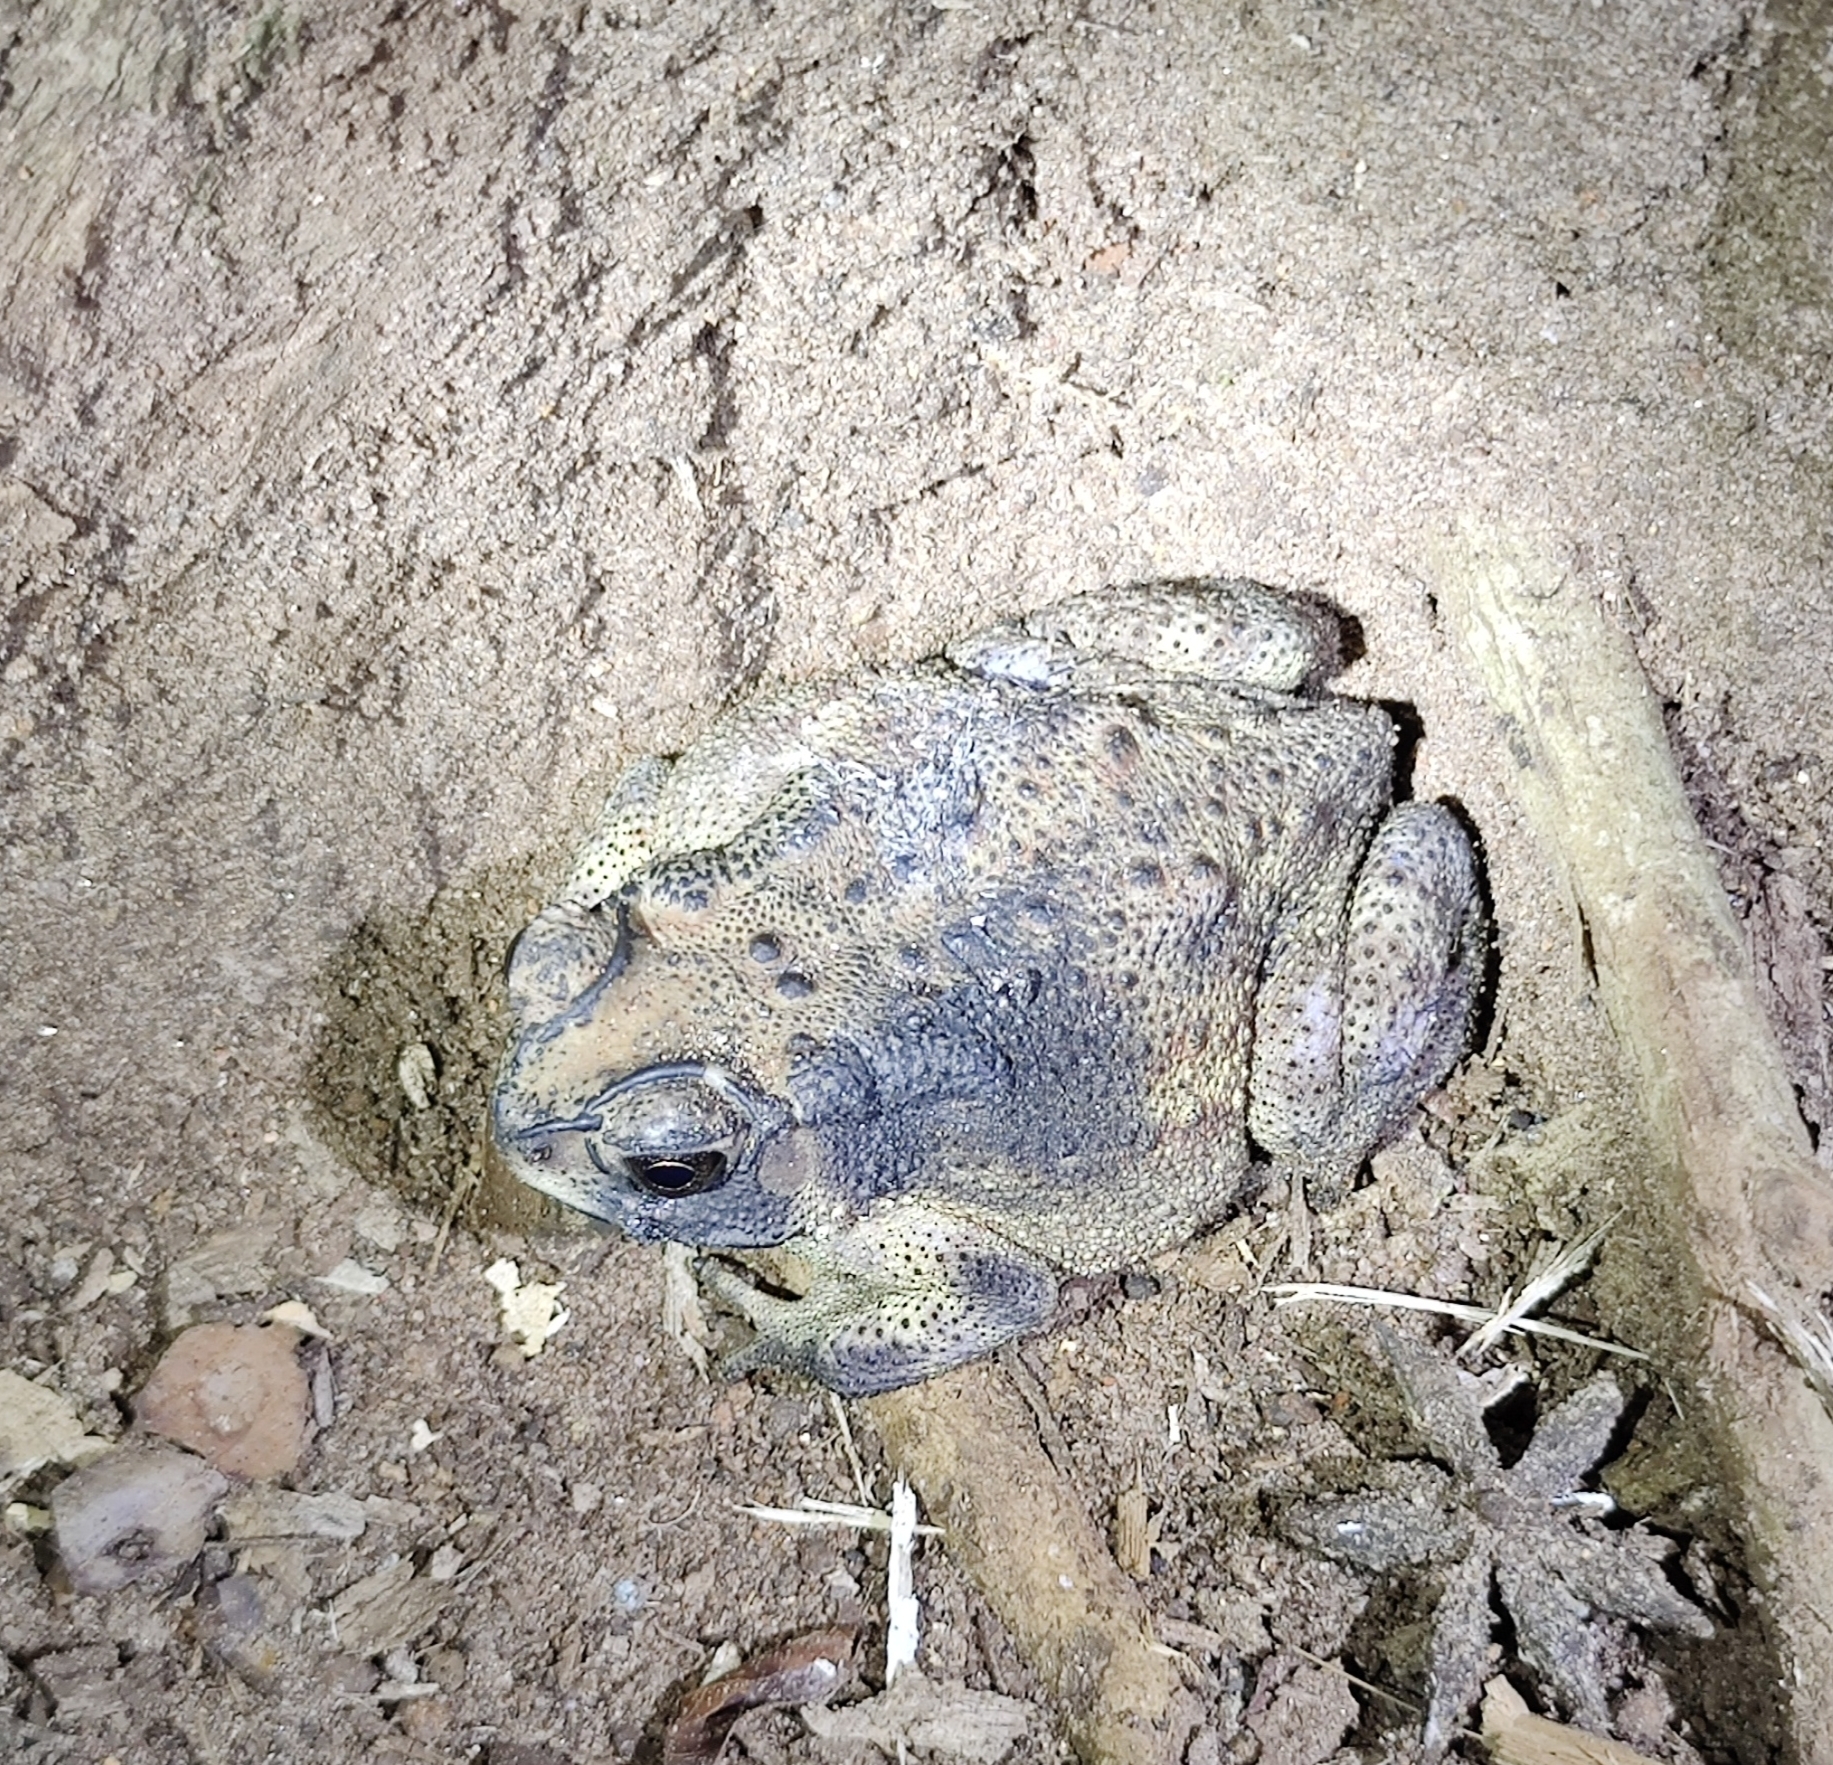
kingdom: Animalia
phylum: Chordata
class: Amphibia
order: Anura
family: Bufonidae
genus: Duttaphrynus
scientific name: Duttaphrynus melanostictus
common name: Common sunda toad
